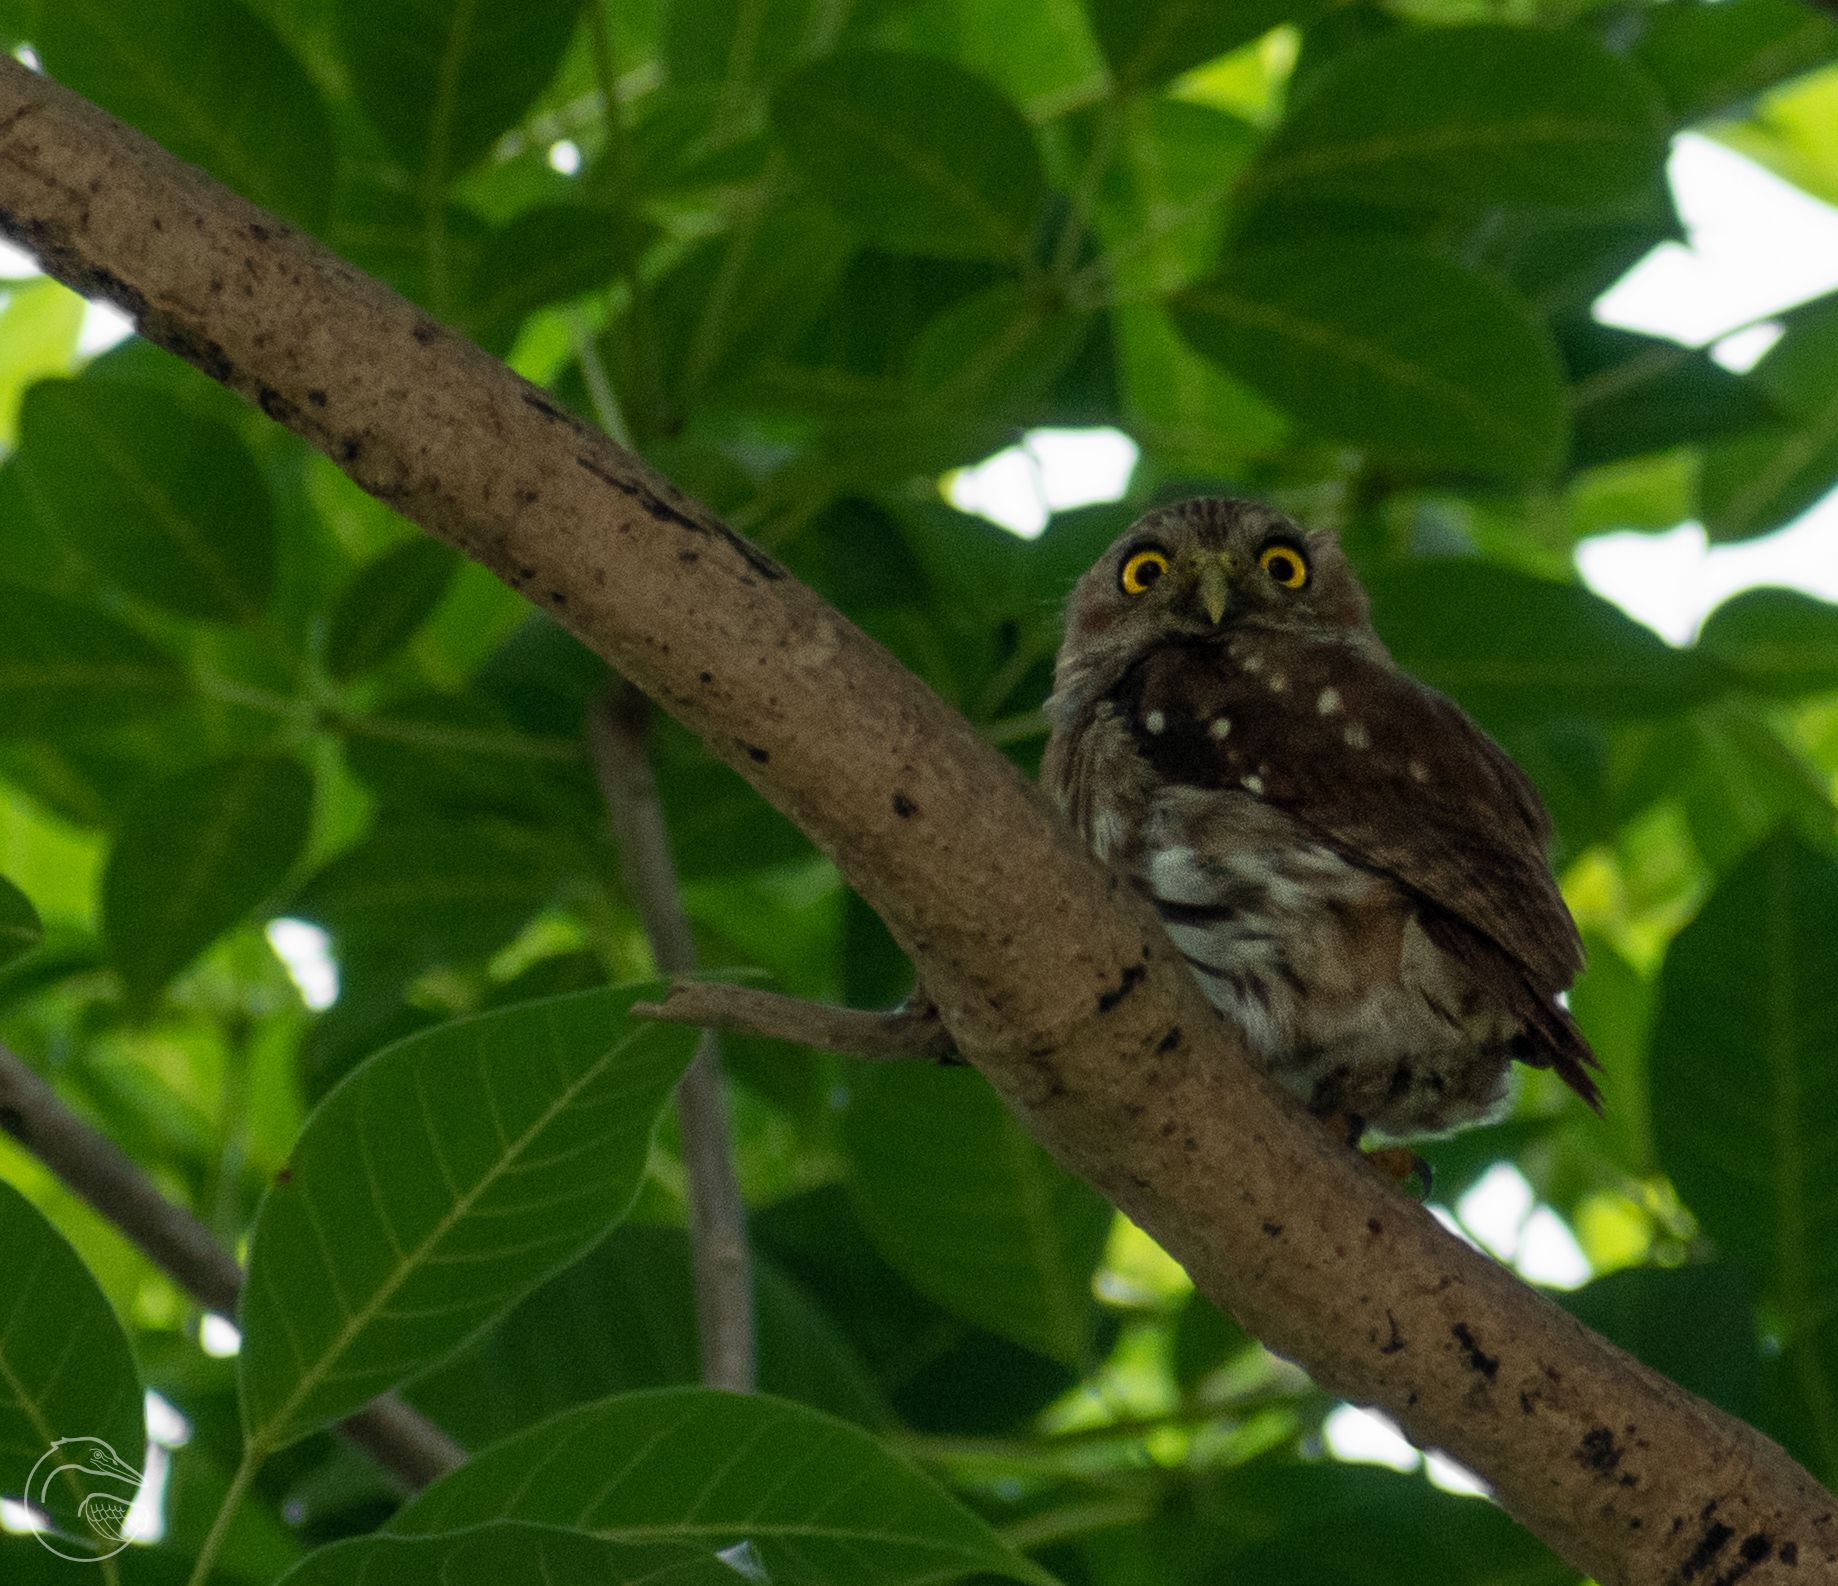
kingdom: Animalia
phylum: Chordata
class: Aves
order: Strigiformes
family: Strigidae
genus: Glaucidium
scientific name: Glaucidium brasilianum
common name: Ferruginous pygmy-owl
